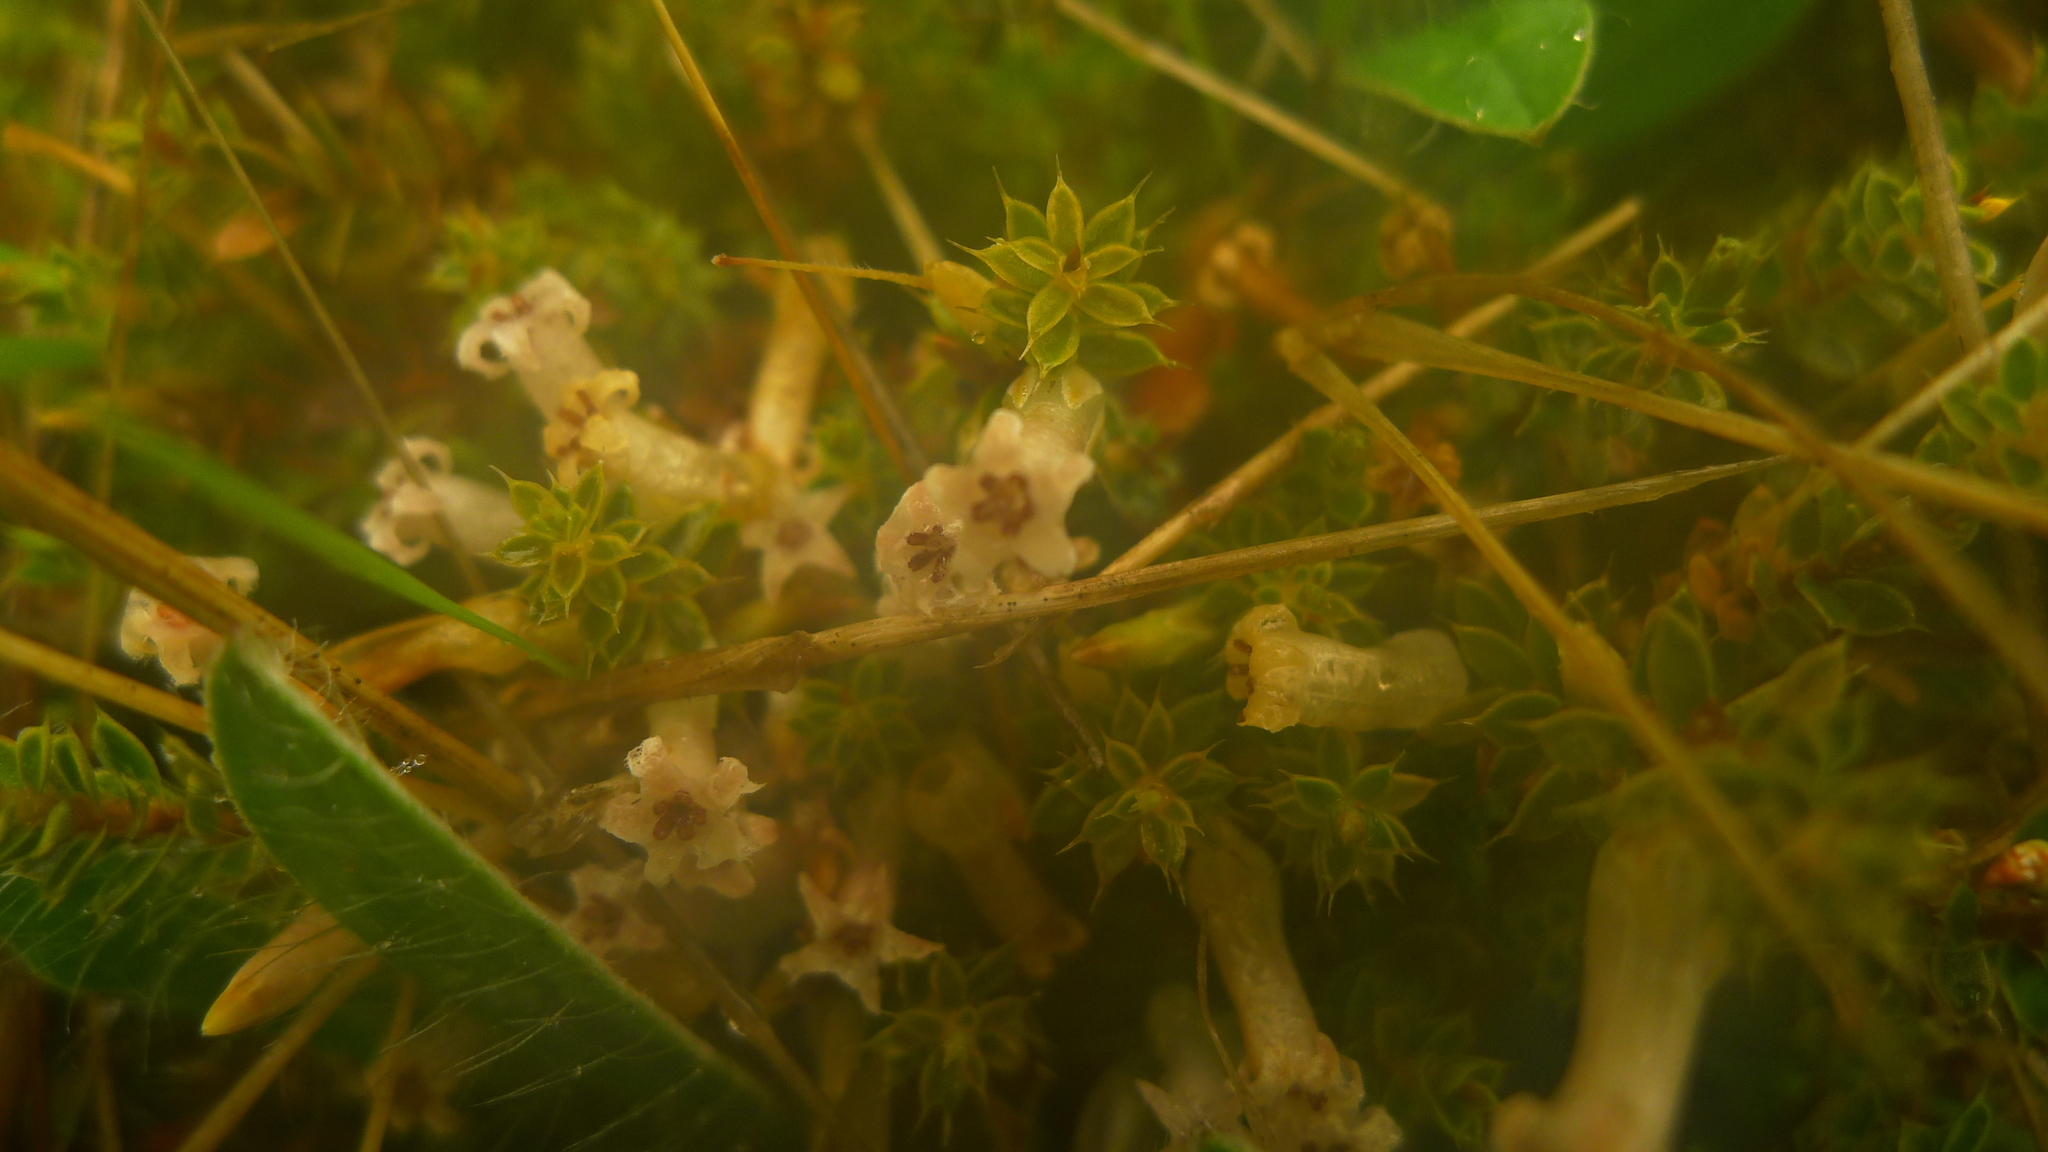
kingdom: Plantae
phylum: Tracheophyta
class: Magnoliopsida
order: Ericales
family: Ericaceae
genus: Styphelia
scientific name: Styphelia nesophila
